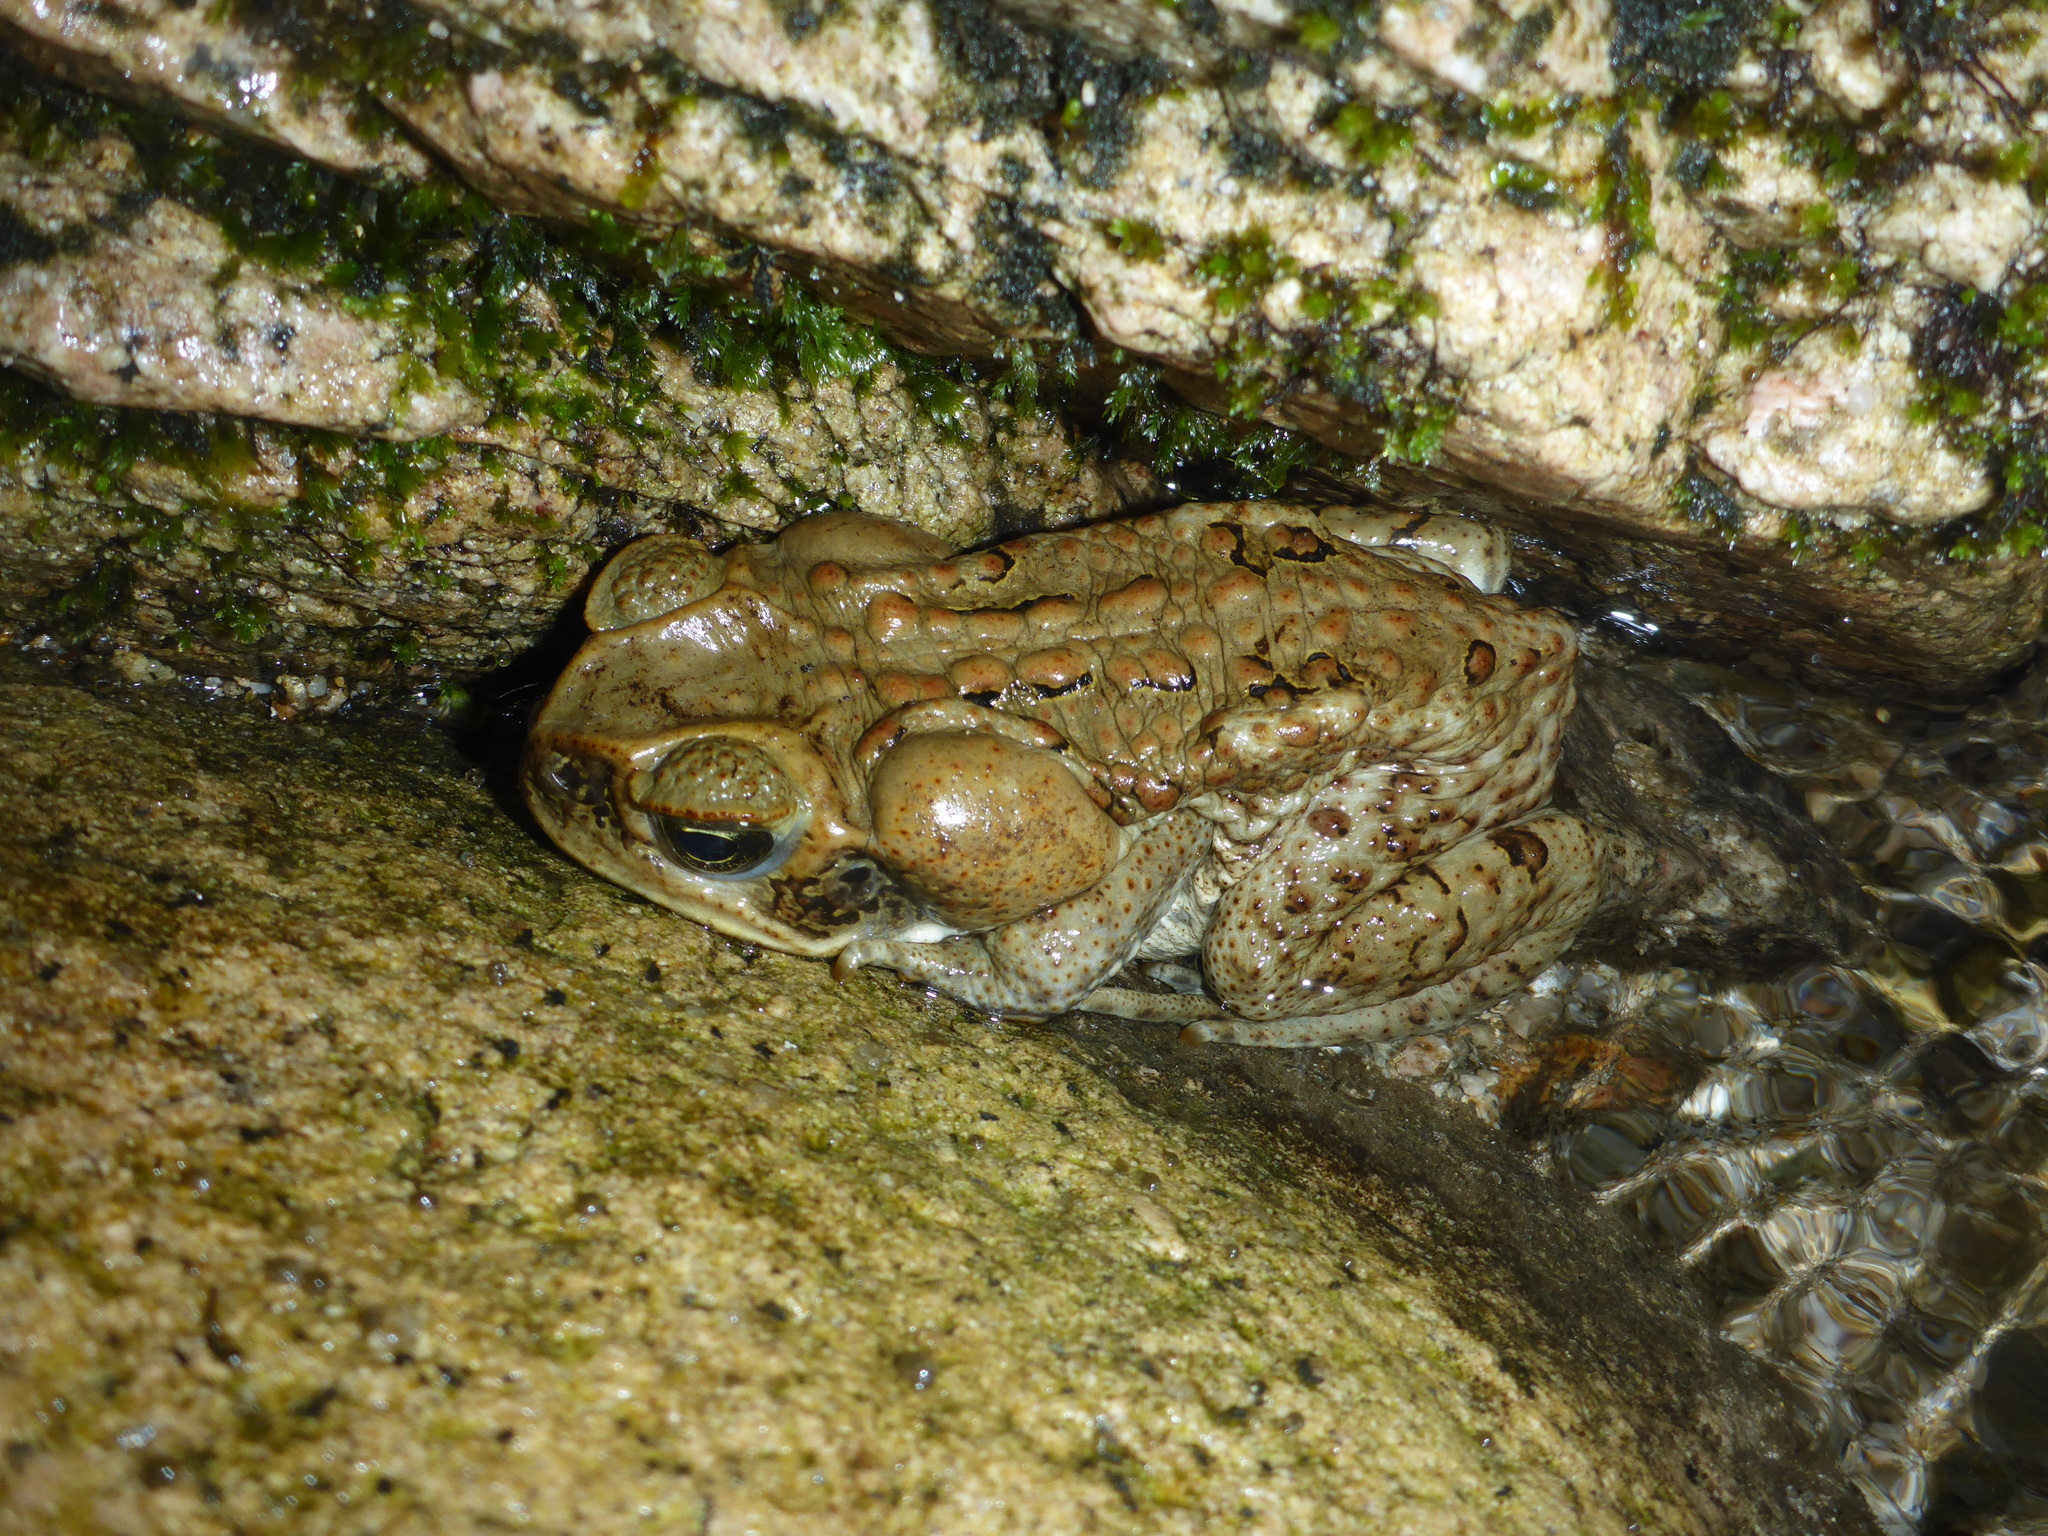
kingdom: Animalia
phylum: Chordata
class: Amphibia
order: Anura
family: Bufonidae
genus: Rhinella
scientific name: Rhinella marina
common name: Cane toad
